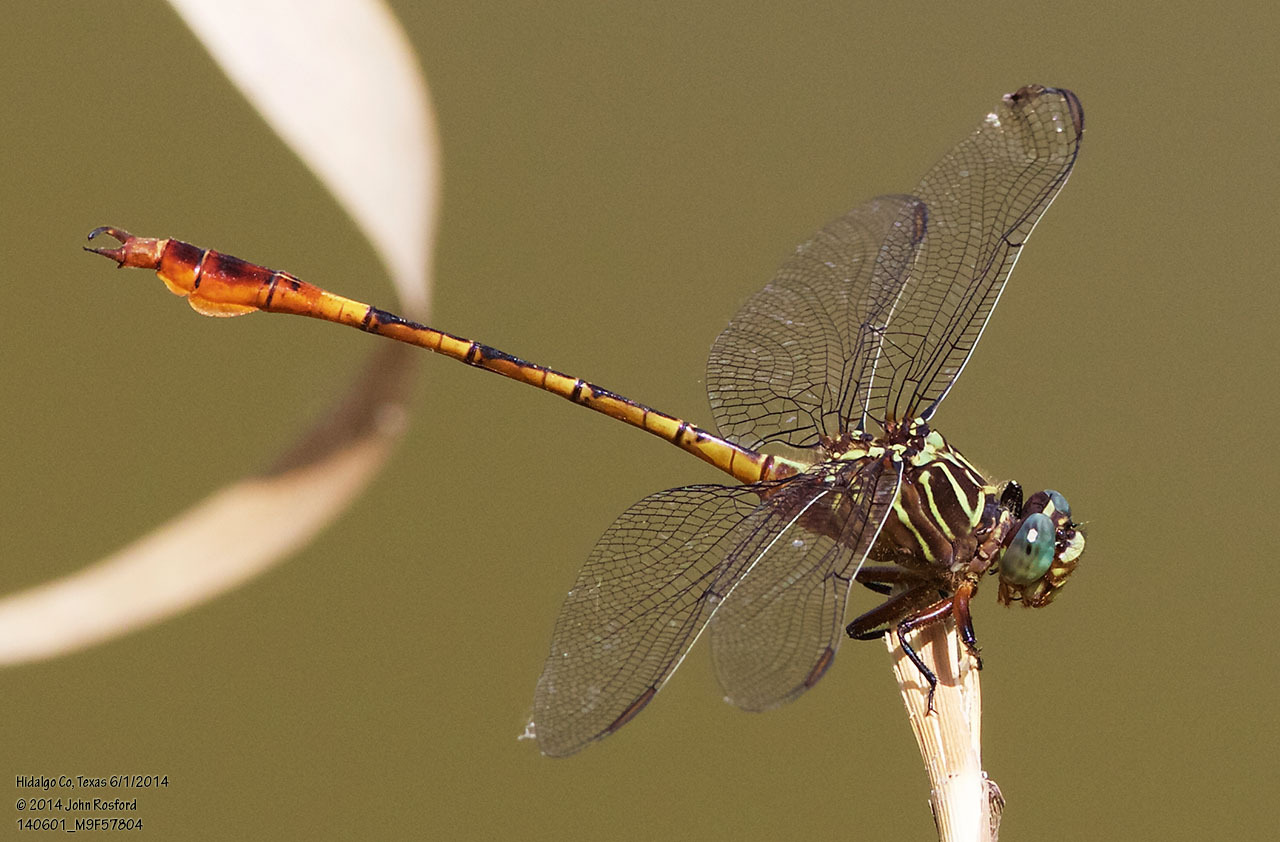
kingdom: Animalia
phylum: Arthropoda
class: Insecta
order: Odonata
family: Gomphidae
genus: Aphylla
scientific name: Aphylla protracta
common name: Narrow-striped forceptail
